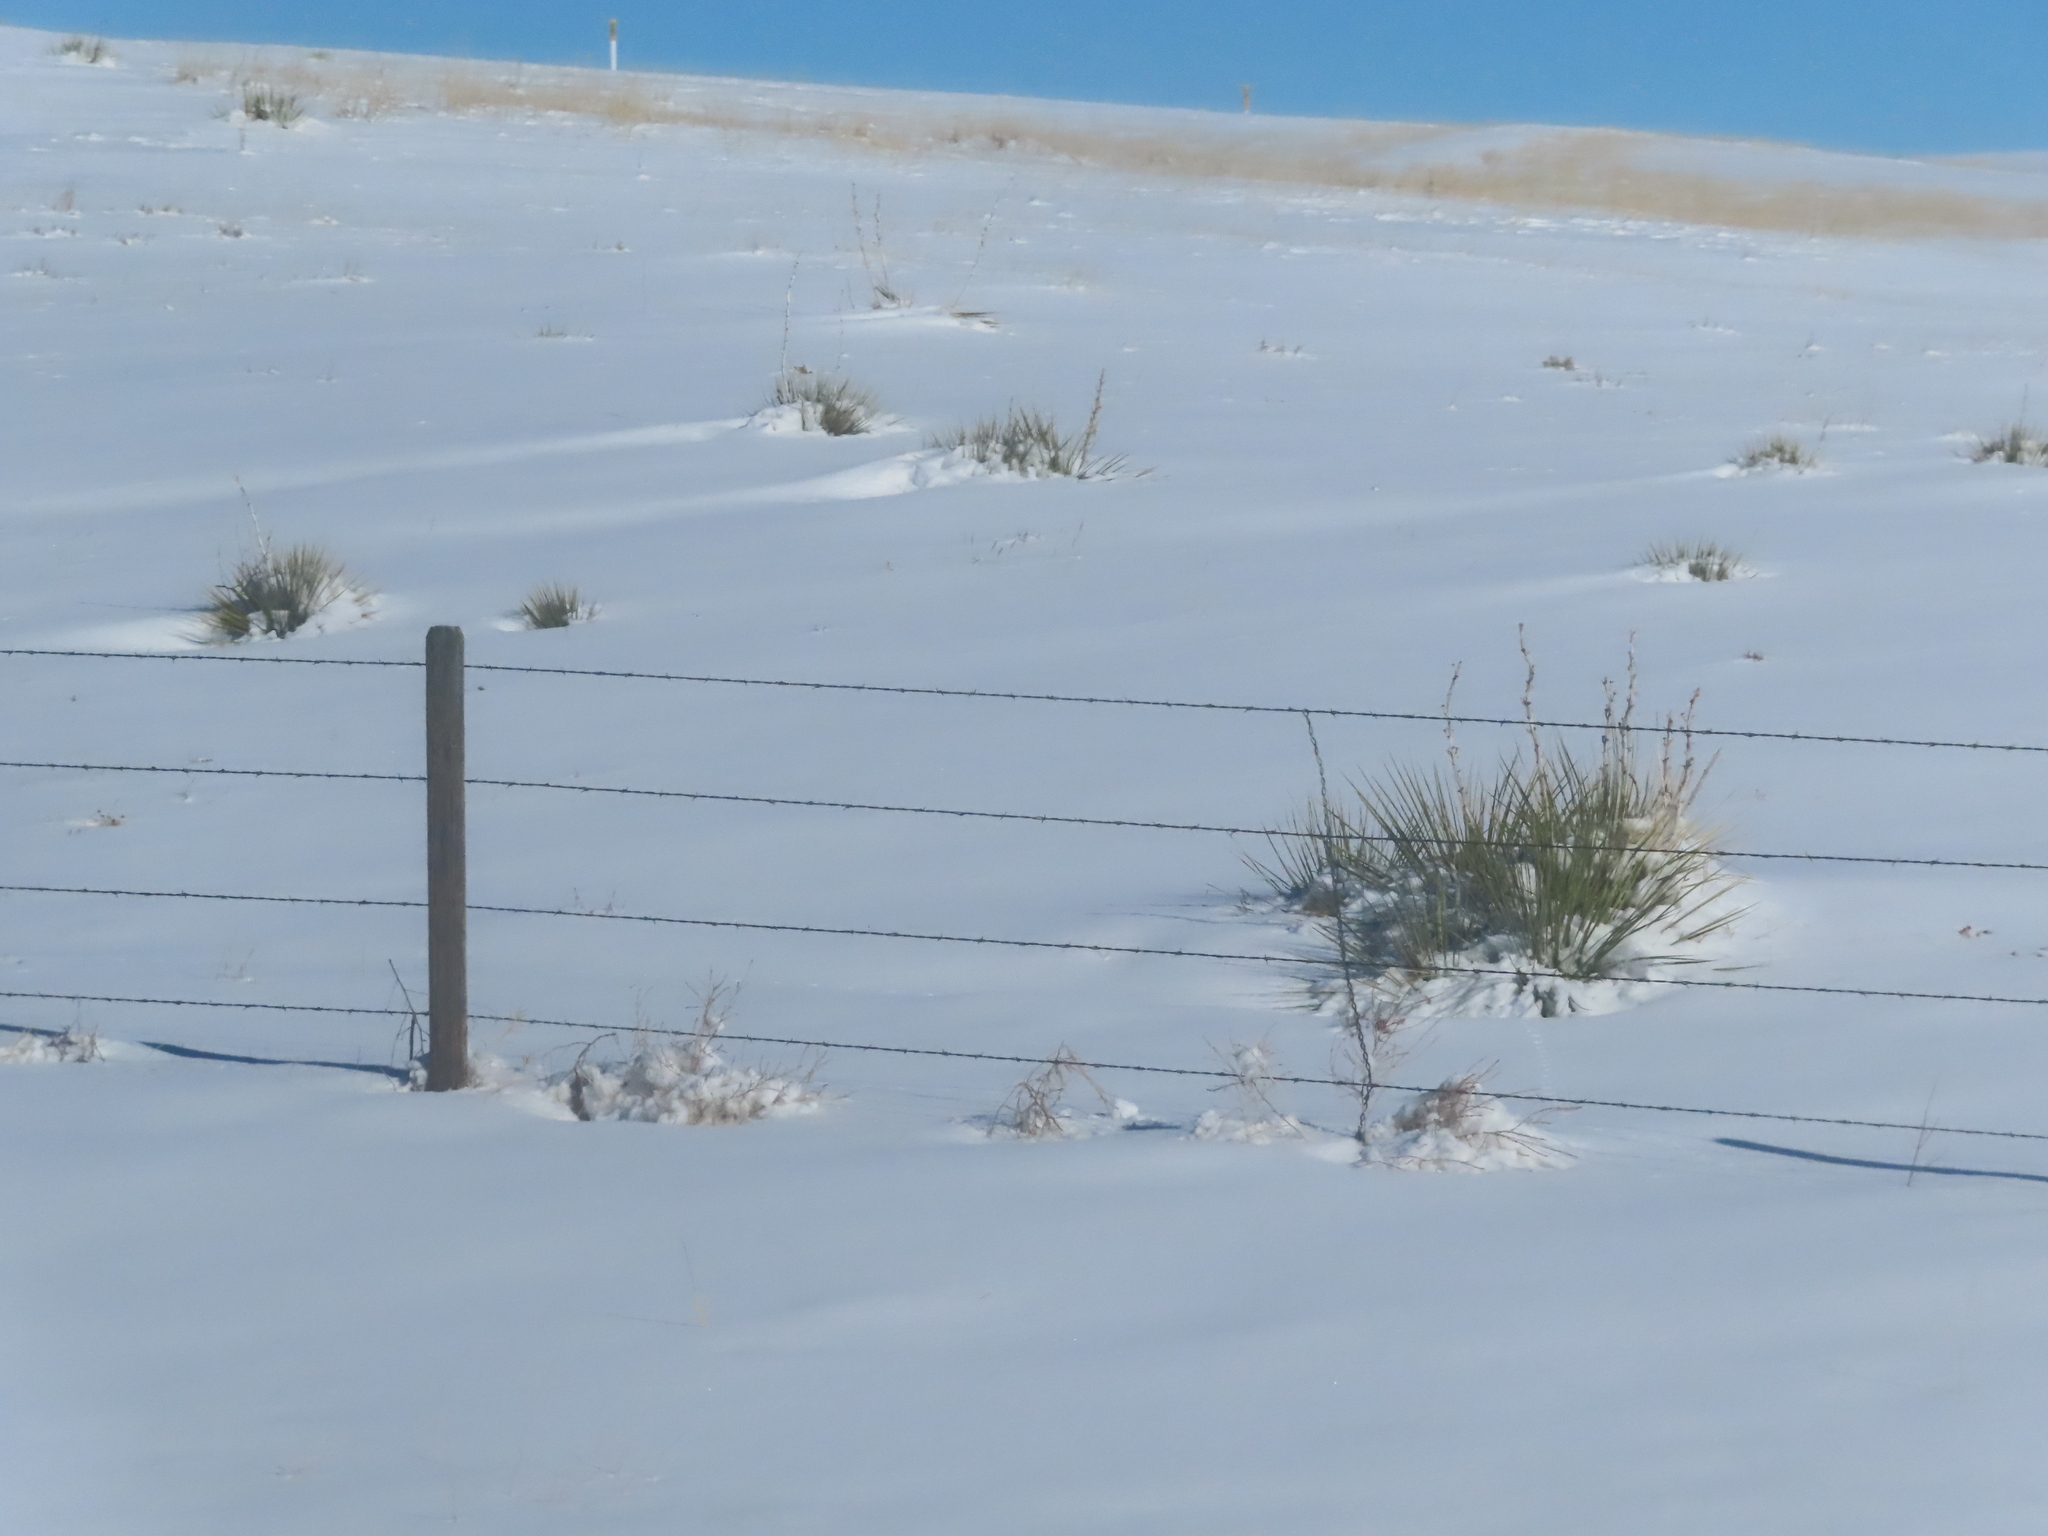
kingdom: Plantae
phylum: Tracheophyta
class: Liliopsida
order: Asparagales
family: Asparagaceae
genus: Yucca
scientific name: Yucca glauca
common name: Great plains yucca
